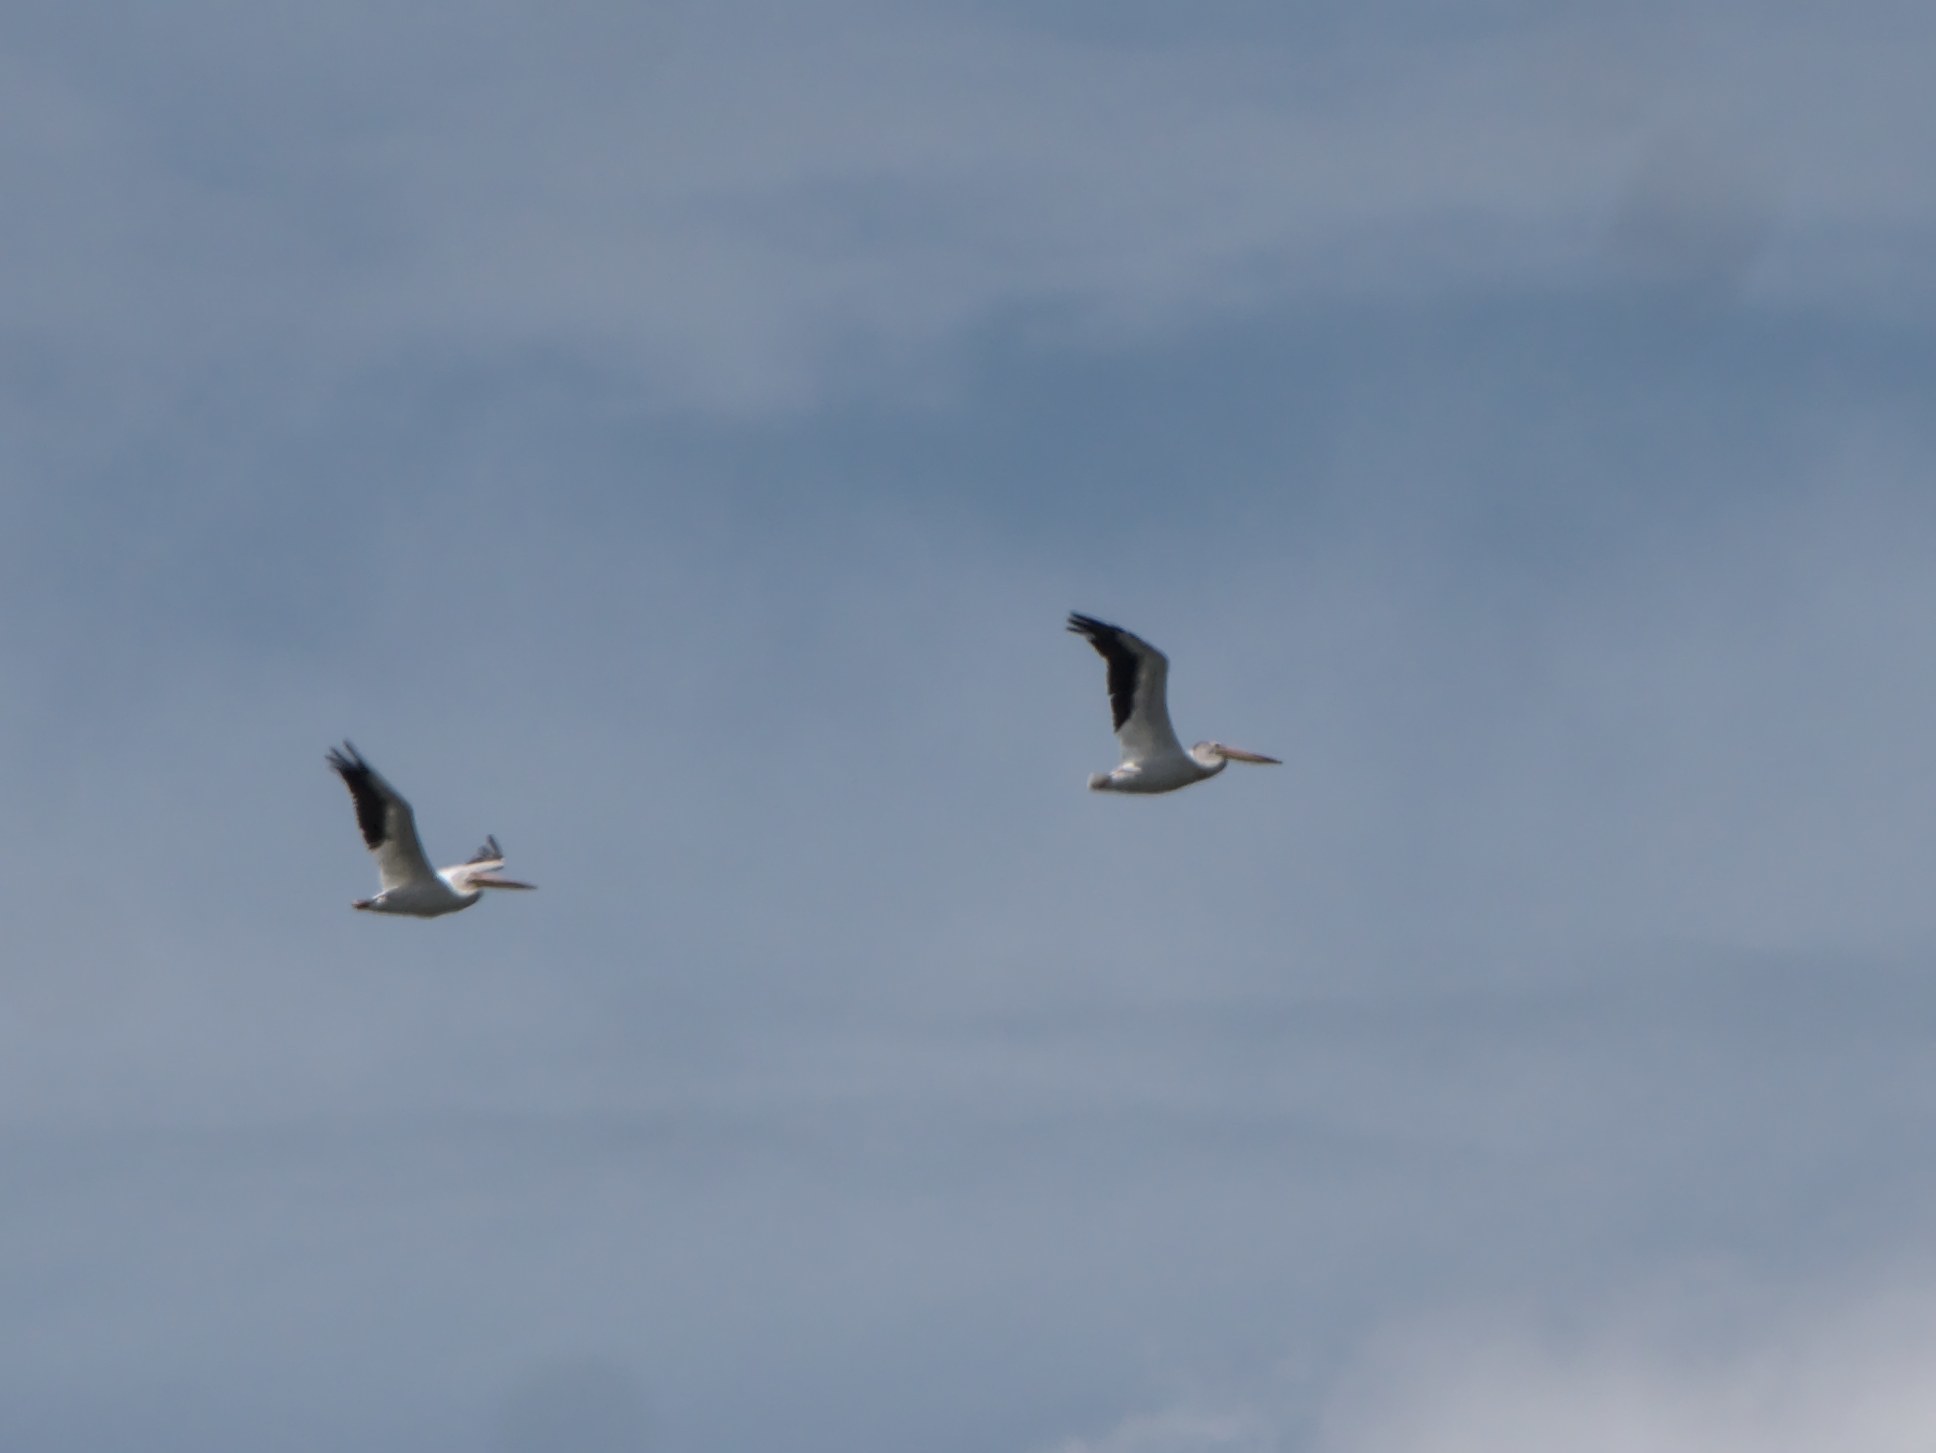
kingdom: Animalia
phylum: Chordata
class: Aves
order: Pelecaniformes
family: Pelecanidae
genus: Pelecanus
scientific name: Pelecanus erythrorhynchos
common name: American white pelican
